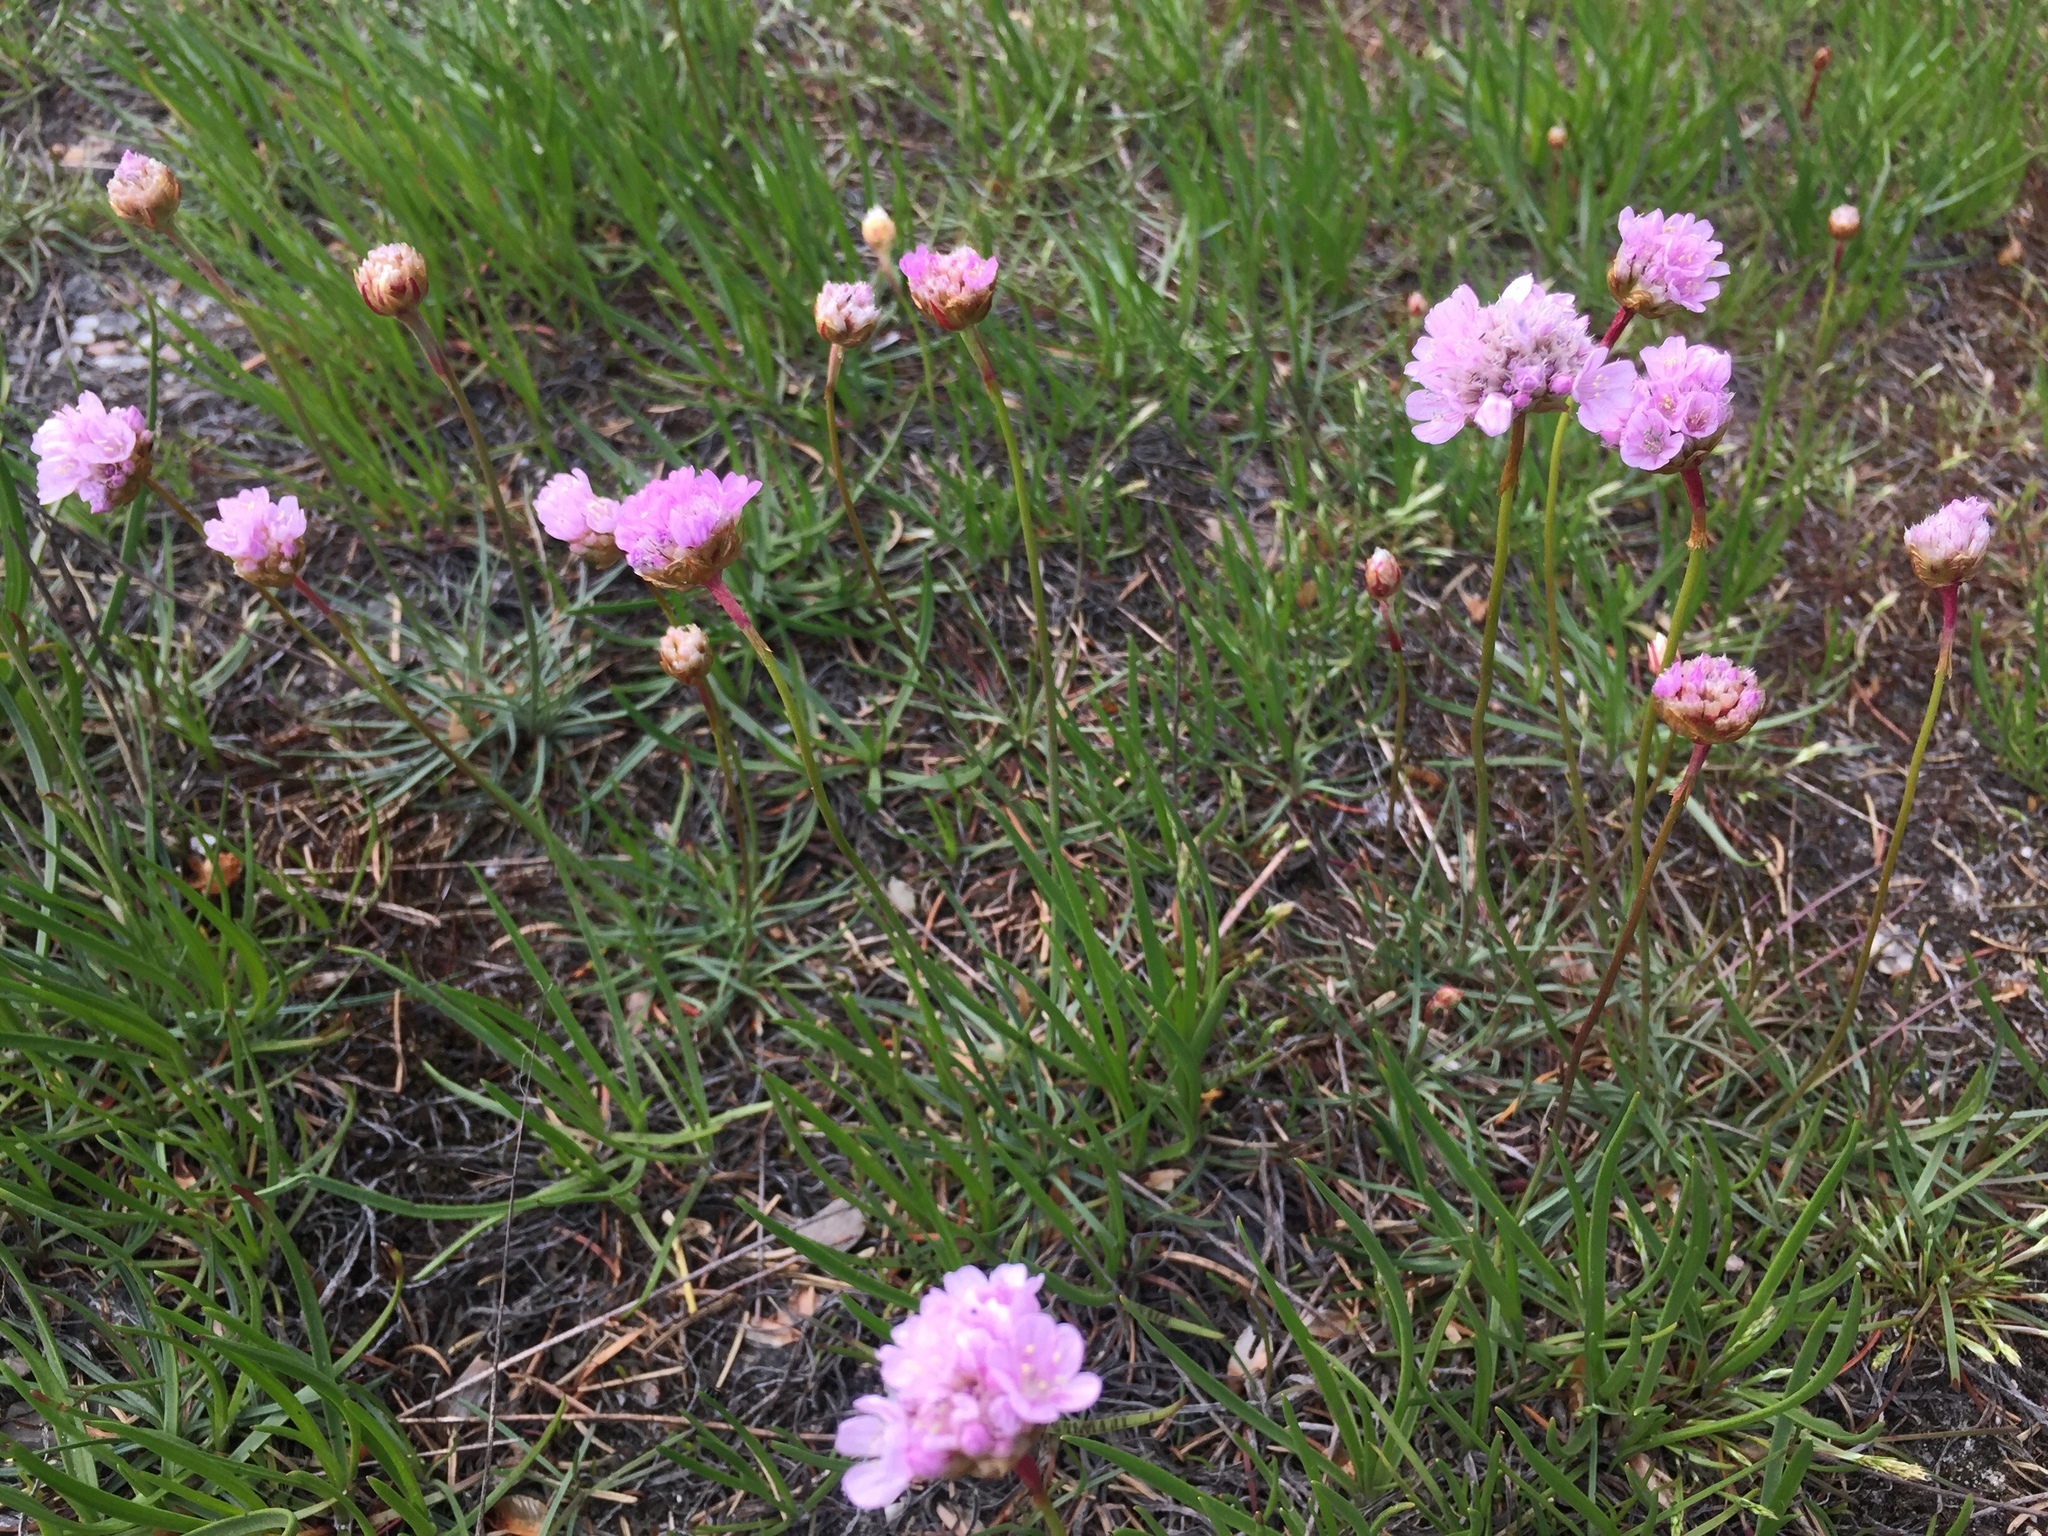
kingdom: Plantae
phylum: Tracheophyta
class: Magnoliopsida
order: Caryophyllales
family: Plumbaginaceae
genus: Armeria
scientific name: Armeria maritima
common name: Thrift
